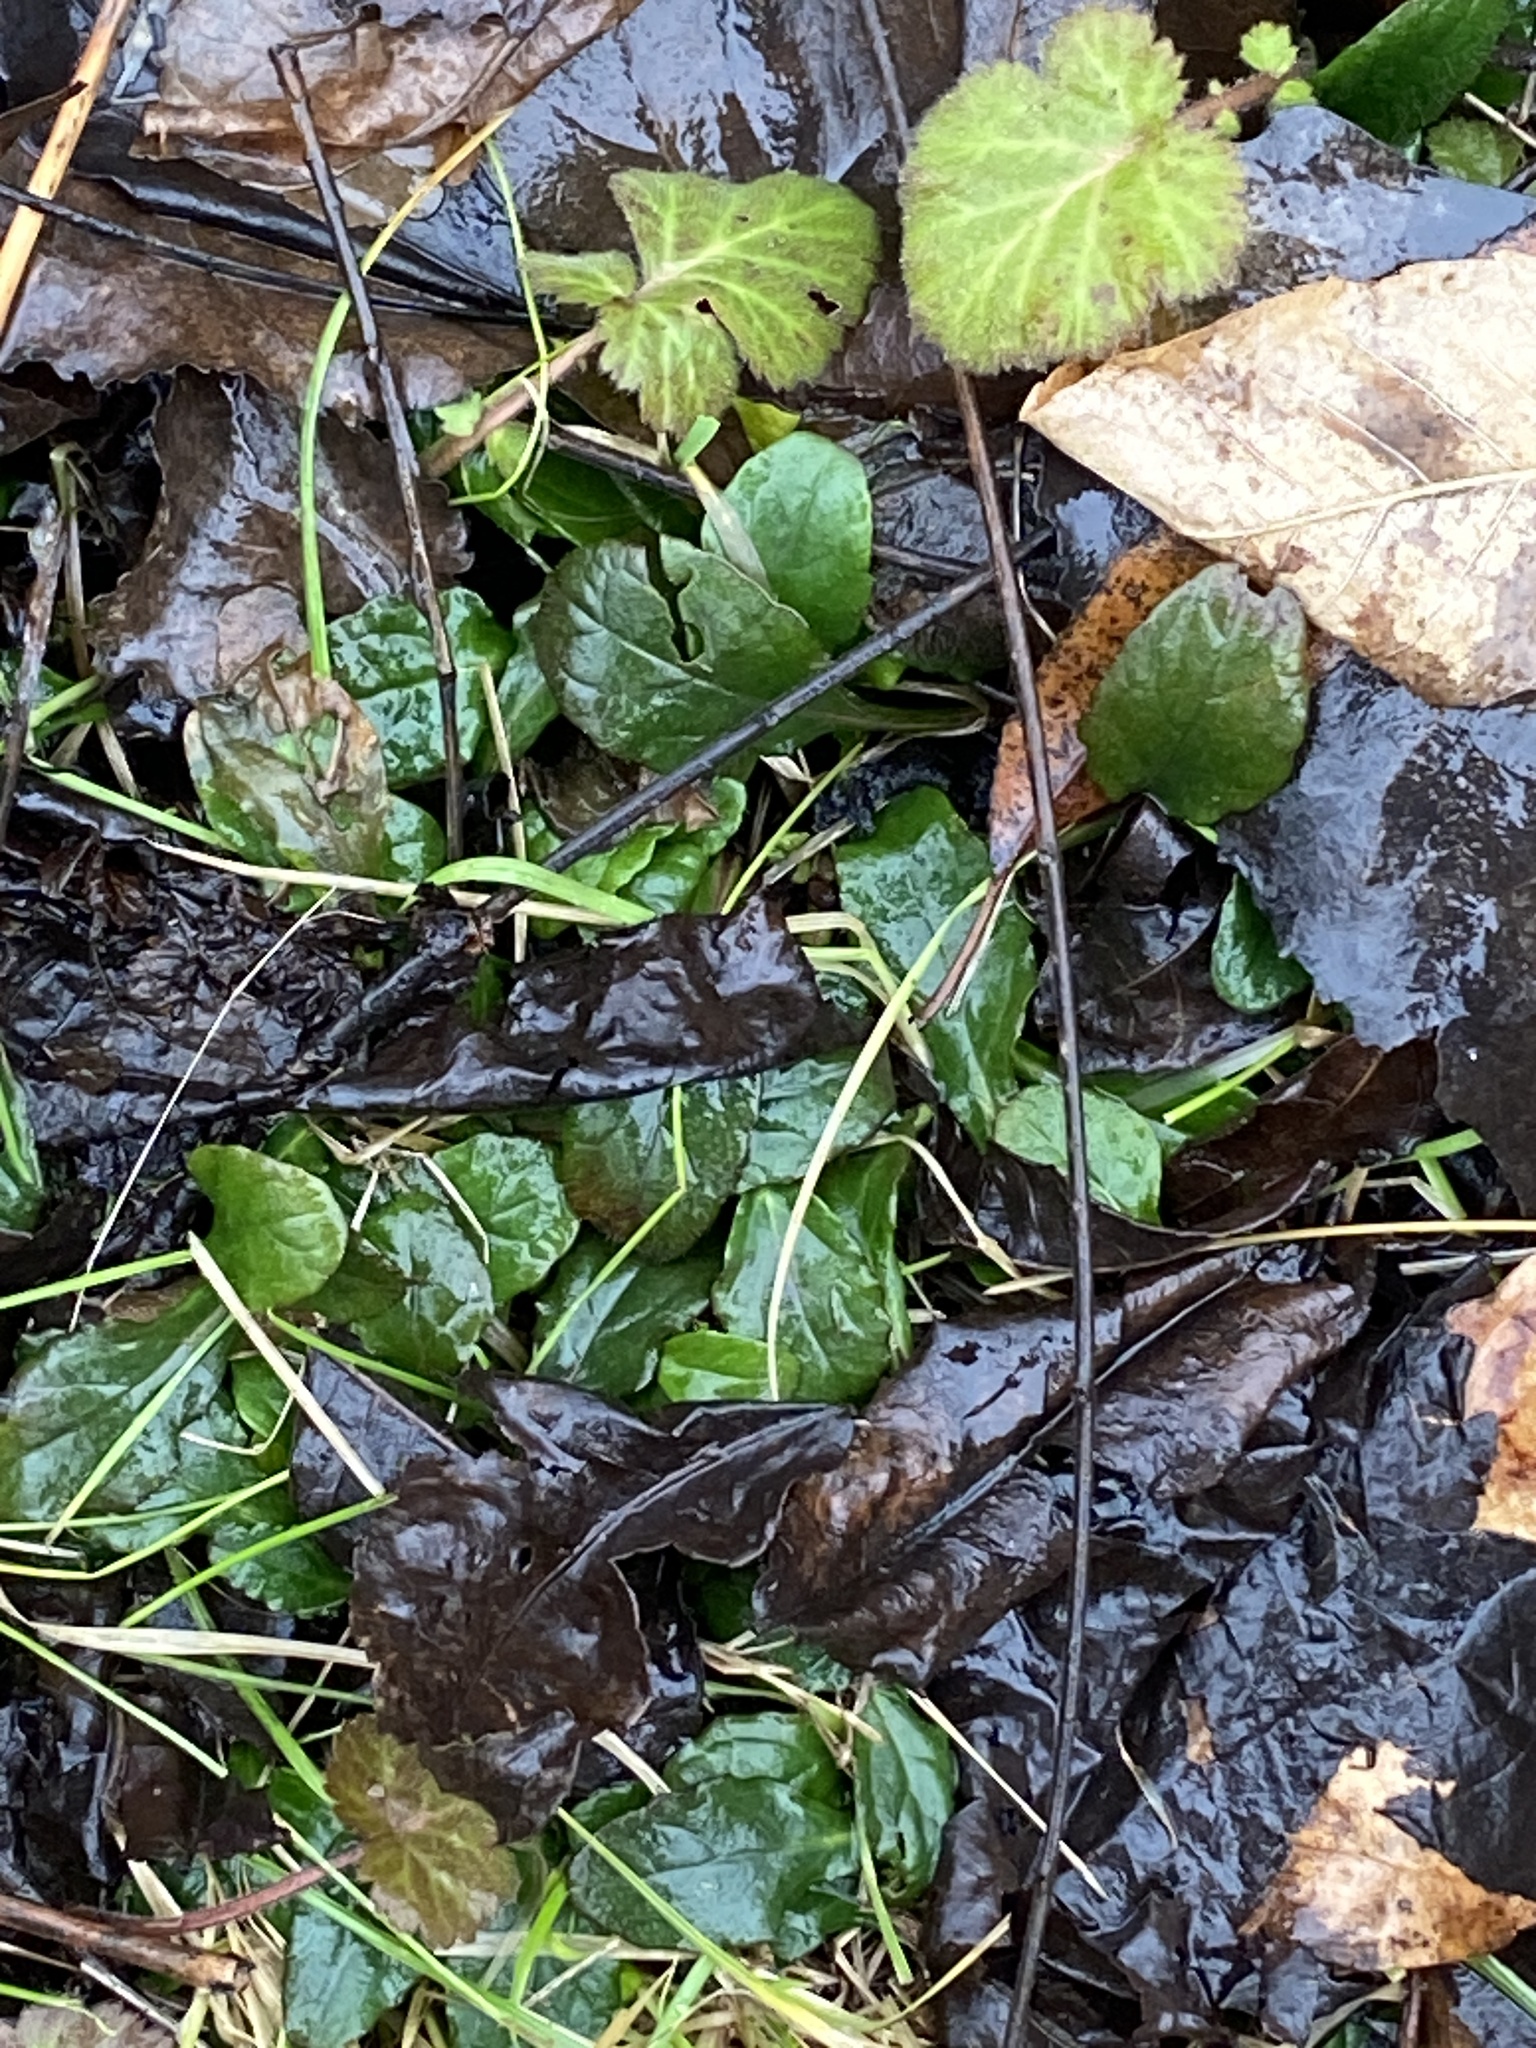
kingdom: Plantae
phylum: Tracheophyta
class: Magnoliopsida
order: Lamiales
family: Lamiaceae
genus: Ajuga
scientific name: Ajuga reptans
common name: Bugle
